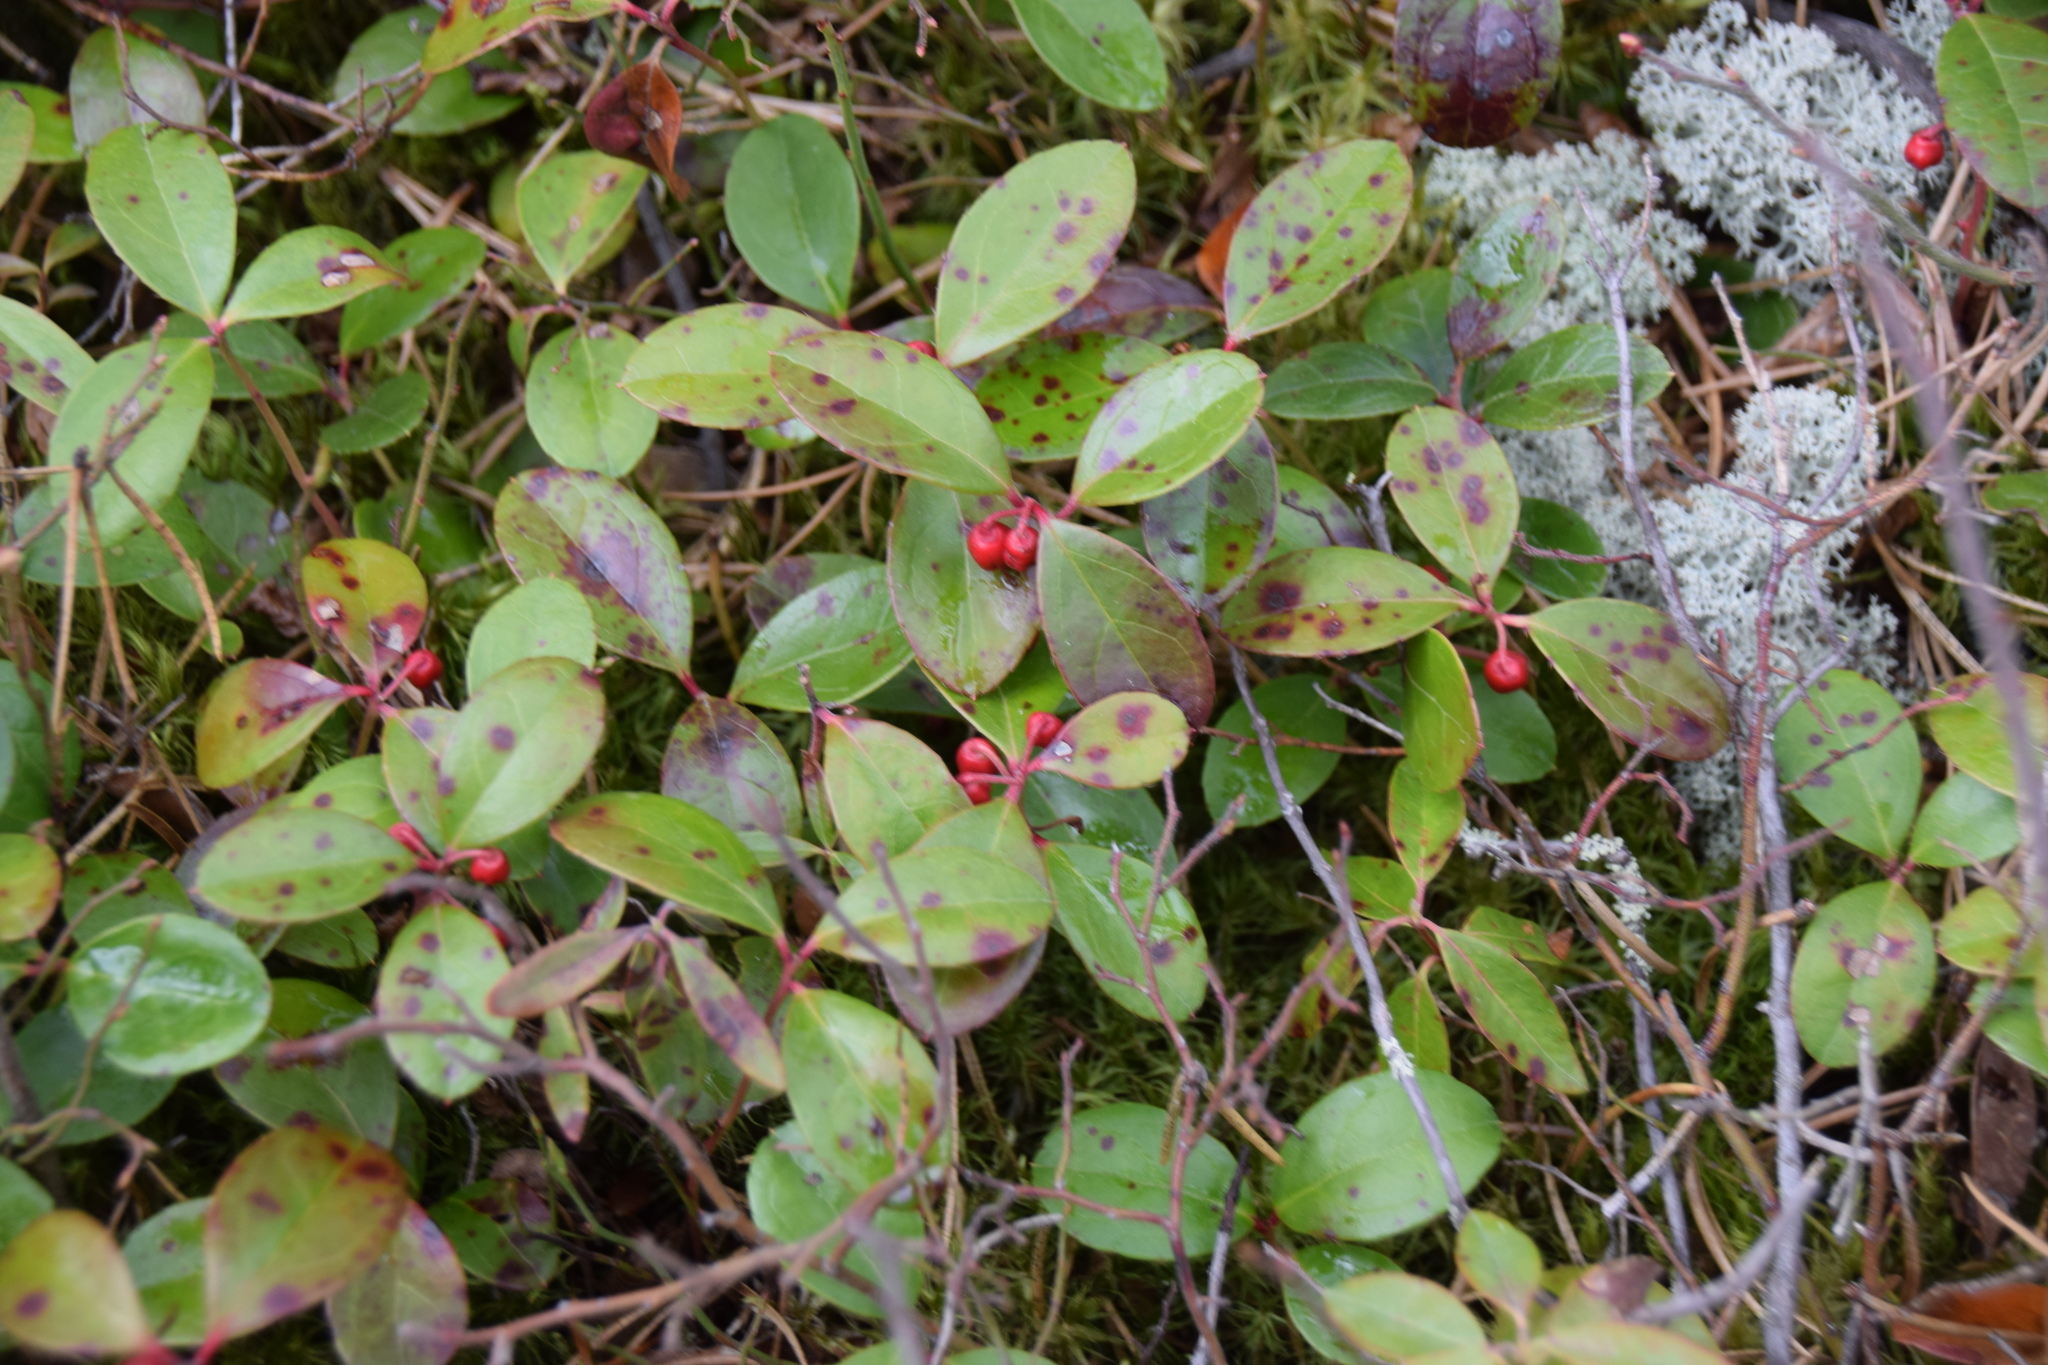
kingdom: Plantae
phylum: Tracheophyta
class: Magnoliopsida
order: Ericales
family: Ericaceae
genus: Gaultheria
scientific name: Gaultheria procumbens
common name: Checkerberry
